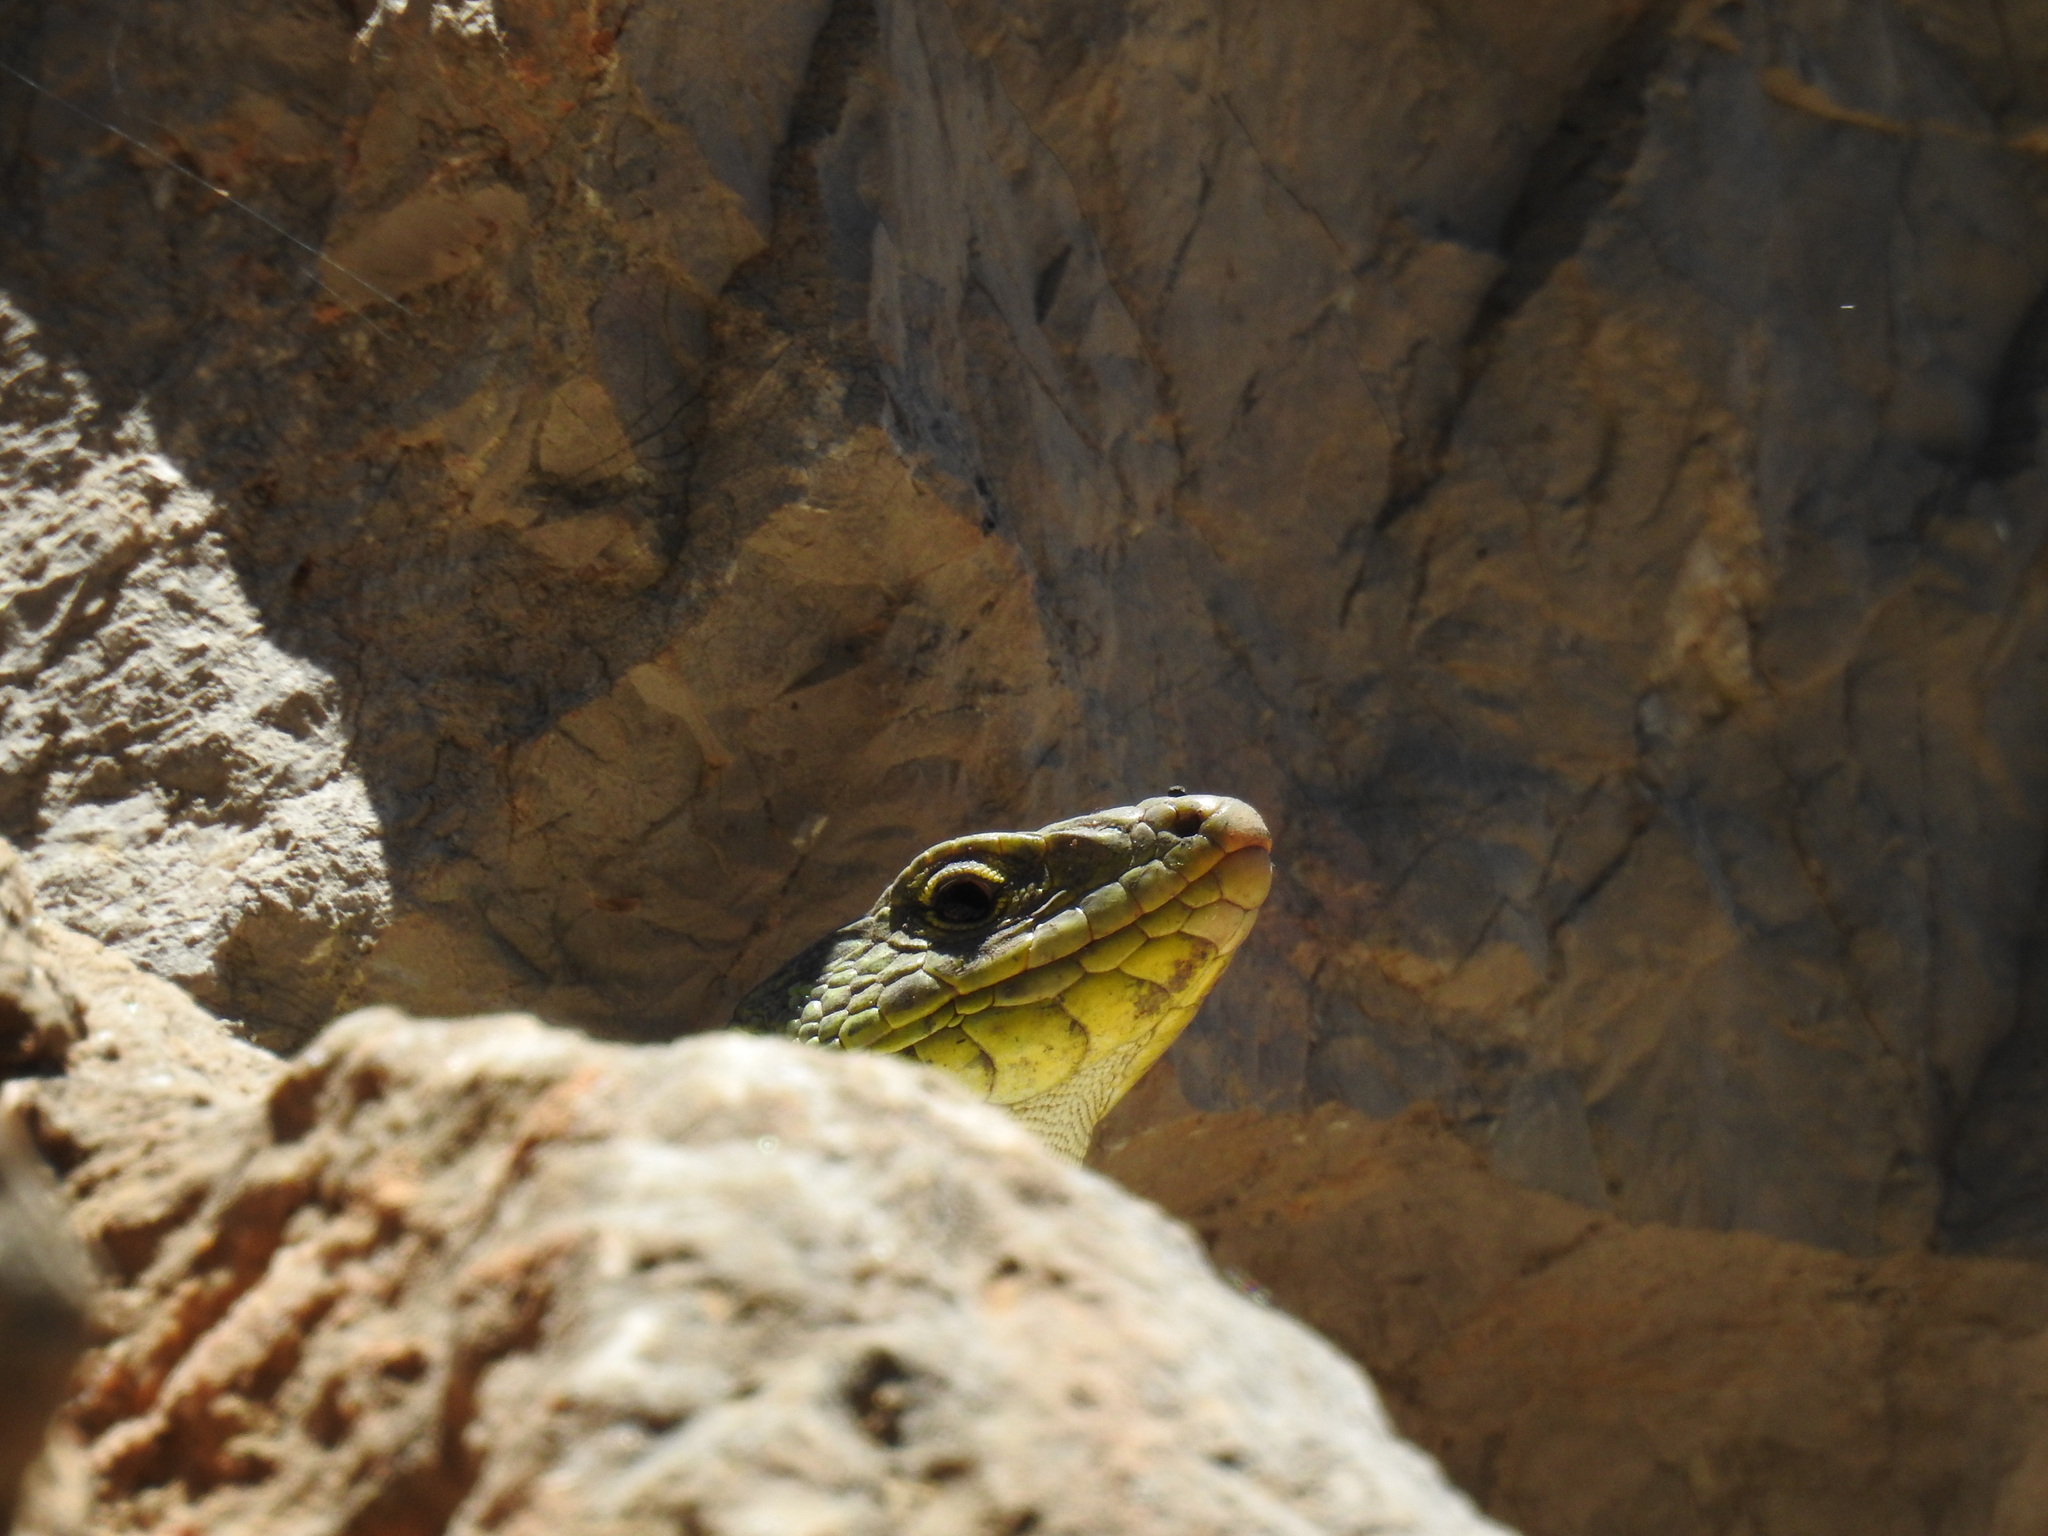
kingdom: Animalia
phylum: Chordata
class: Squamata
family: Lacertidae
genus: Timon
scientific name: Timon lepidus
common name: Ocellated lizard
